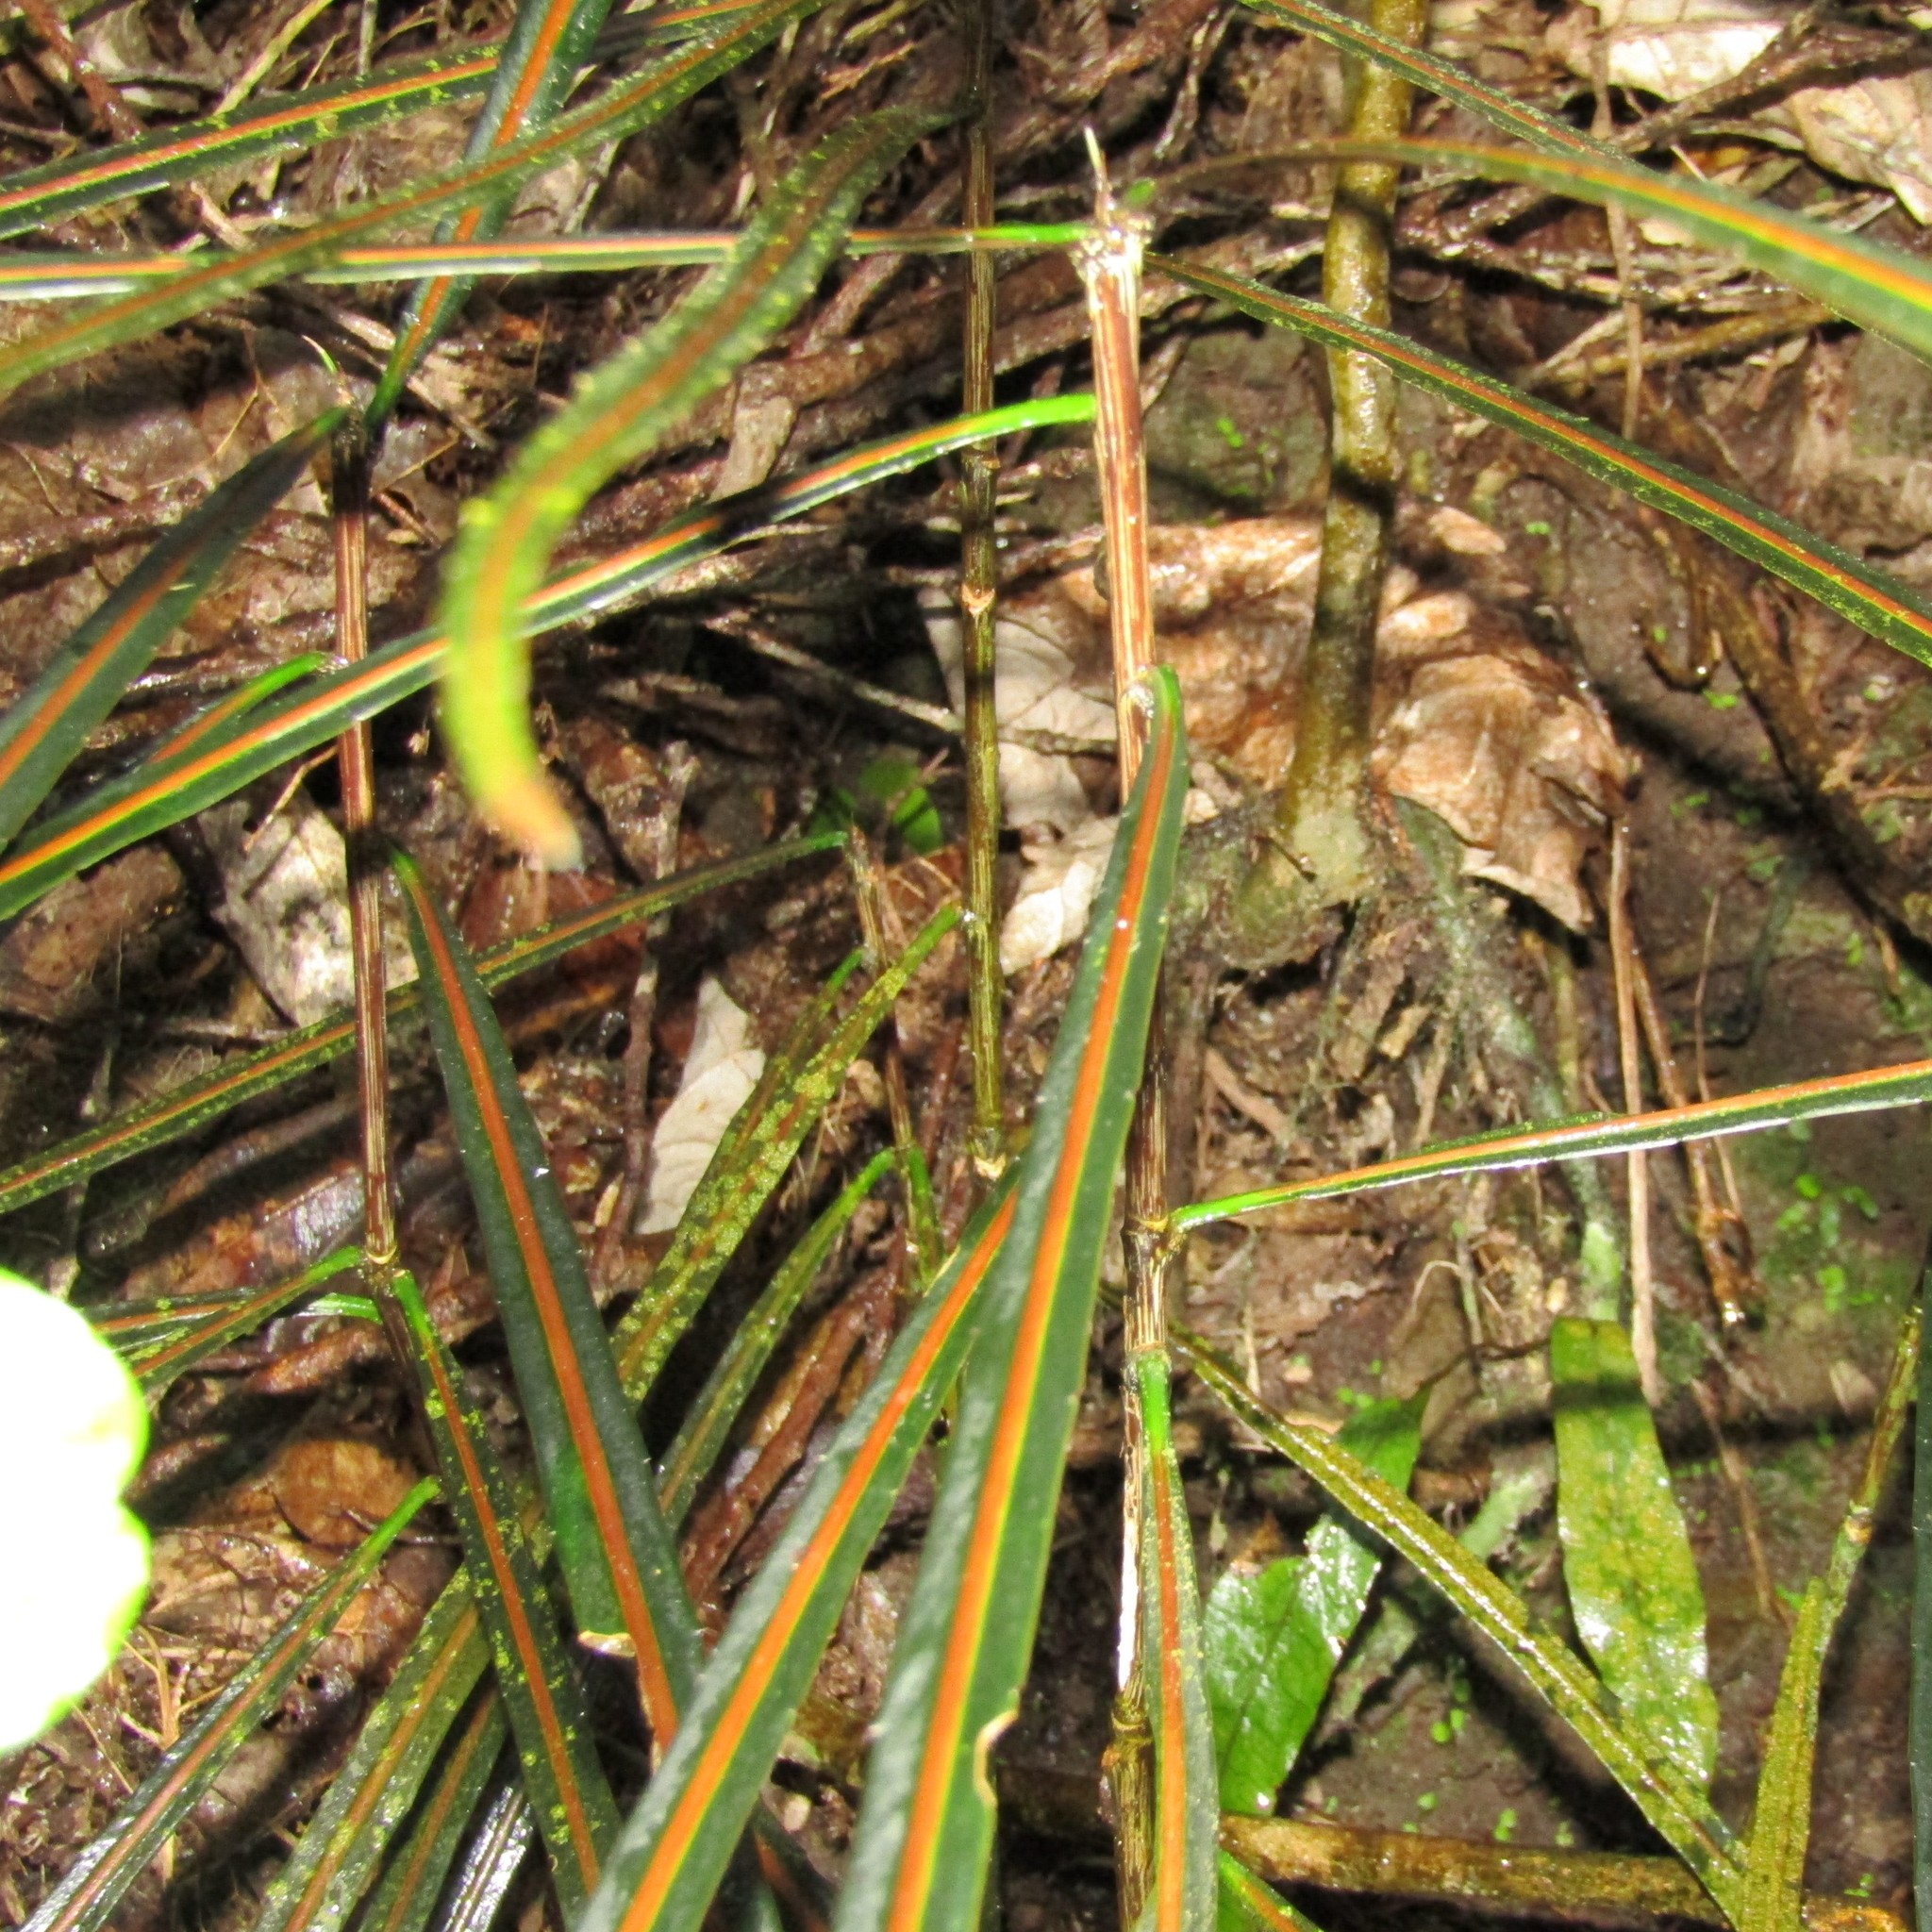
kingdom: Plantae
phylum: Tracheophyta
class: Magnoliopsida
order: Apiales
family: Araliaceae
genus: Pseudopanax
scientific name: Pseudopanax crassifolius
